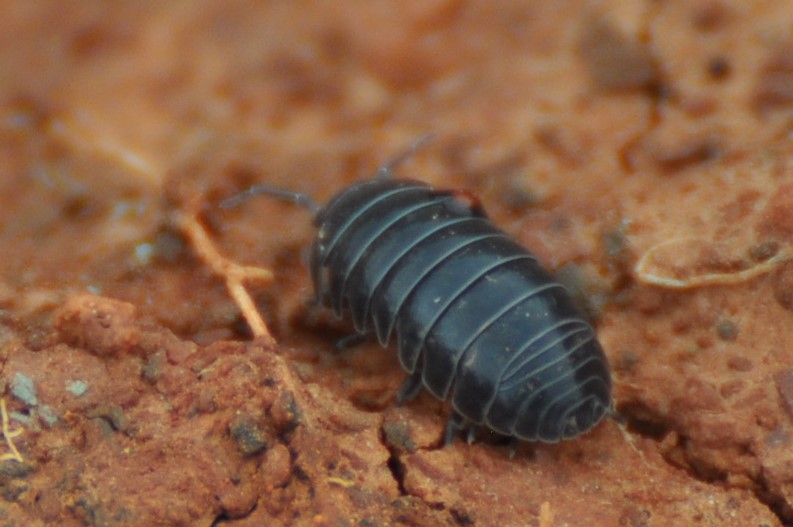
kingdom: Animalia
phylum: Arthropoda
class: Malacostraca
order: Isopoda
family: Armadillidiidae
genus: Armadillidium
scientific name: Armadillidium vulgare
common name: Common pill woodlouse
